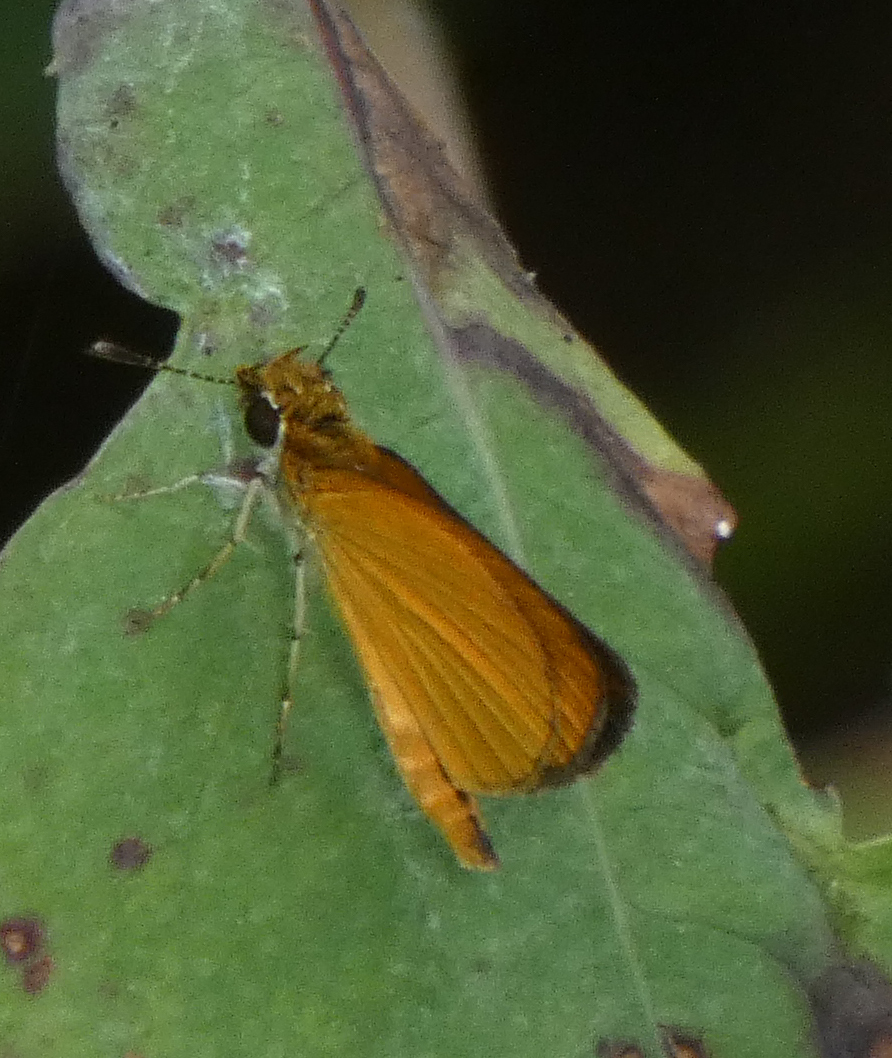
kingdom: Animalia
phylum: Arthropoda
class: Insecta
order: Lepidoptera
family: Hesperiidae
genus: Ancyloxypha
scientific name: Ancyloxypha numitor
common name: Least skipper
